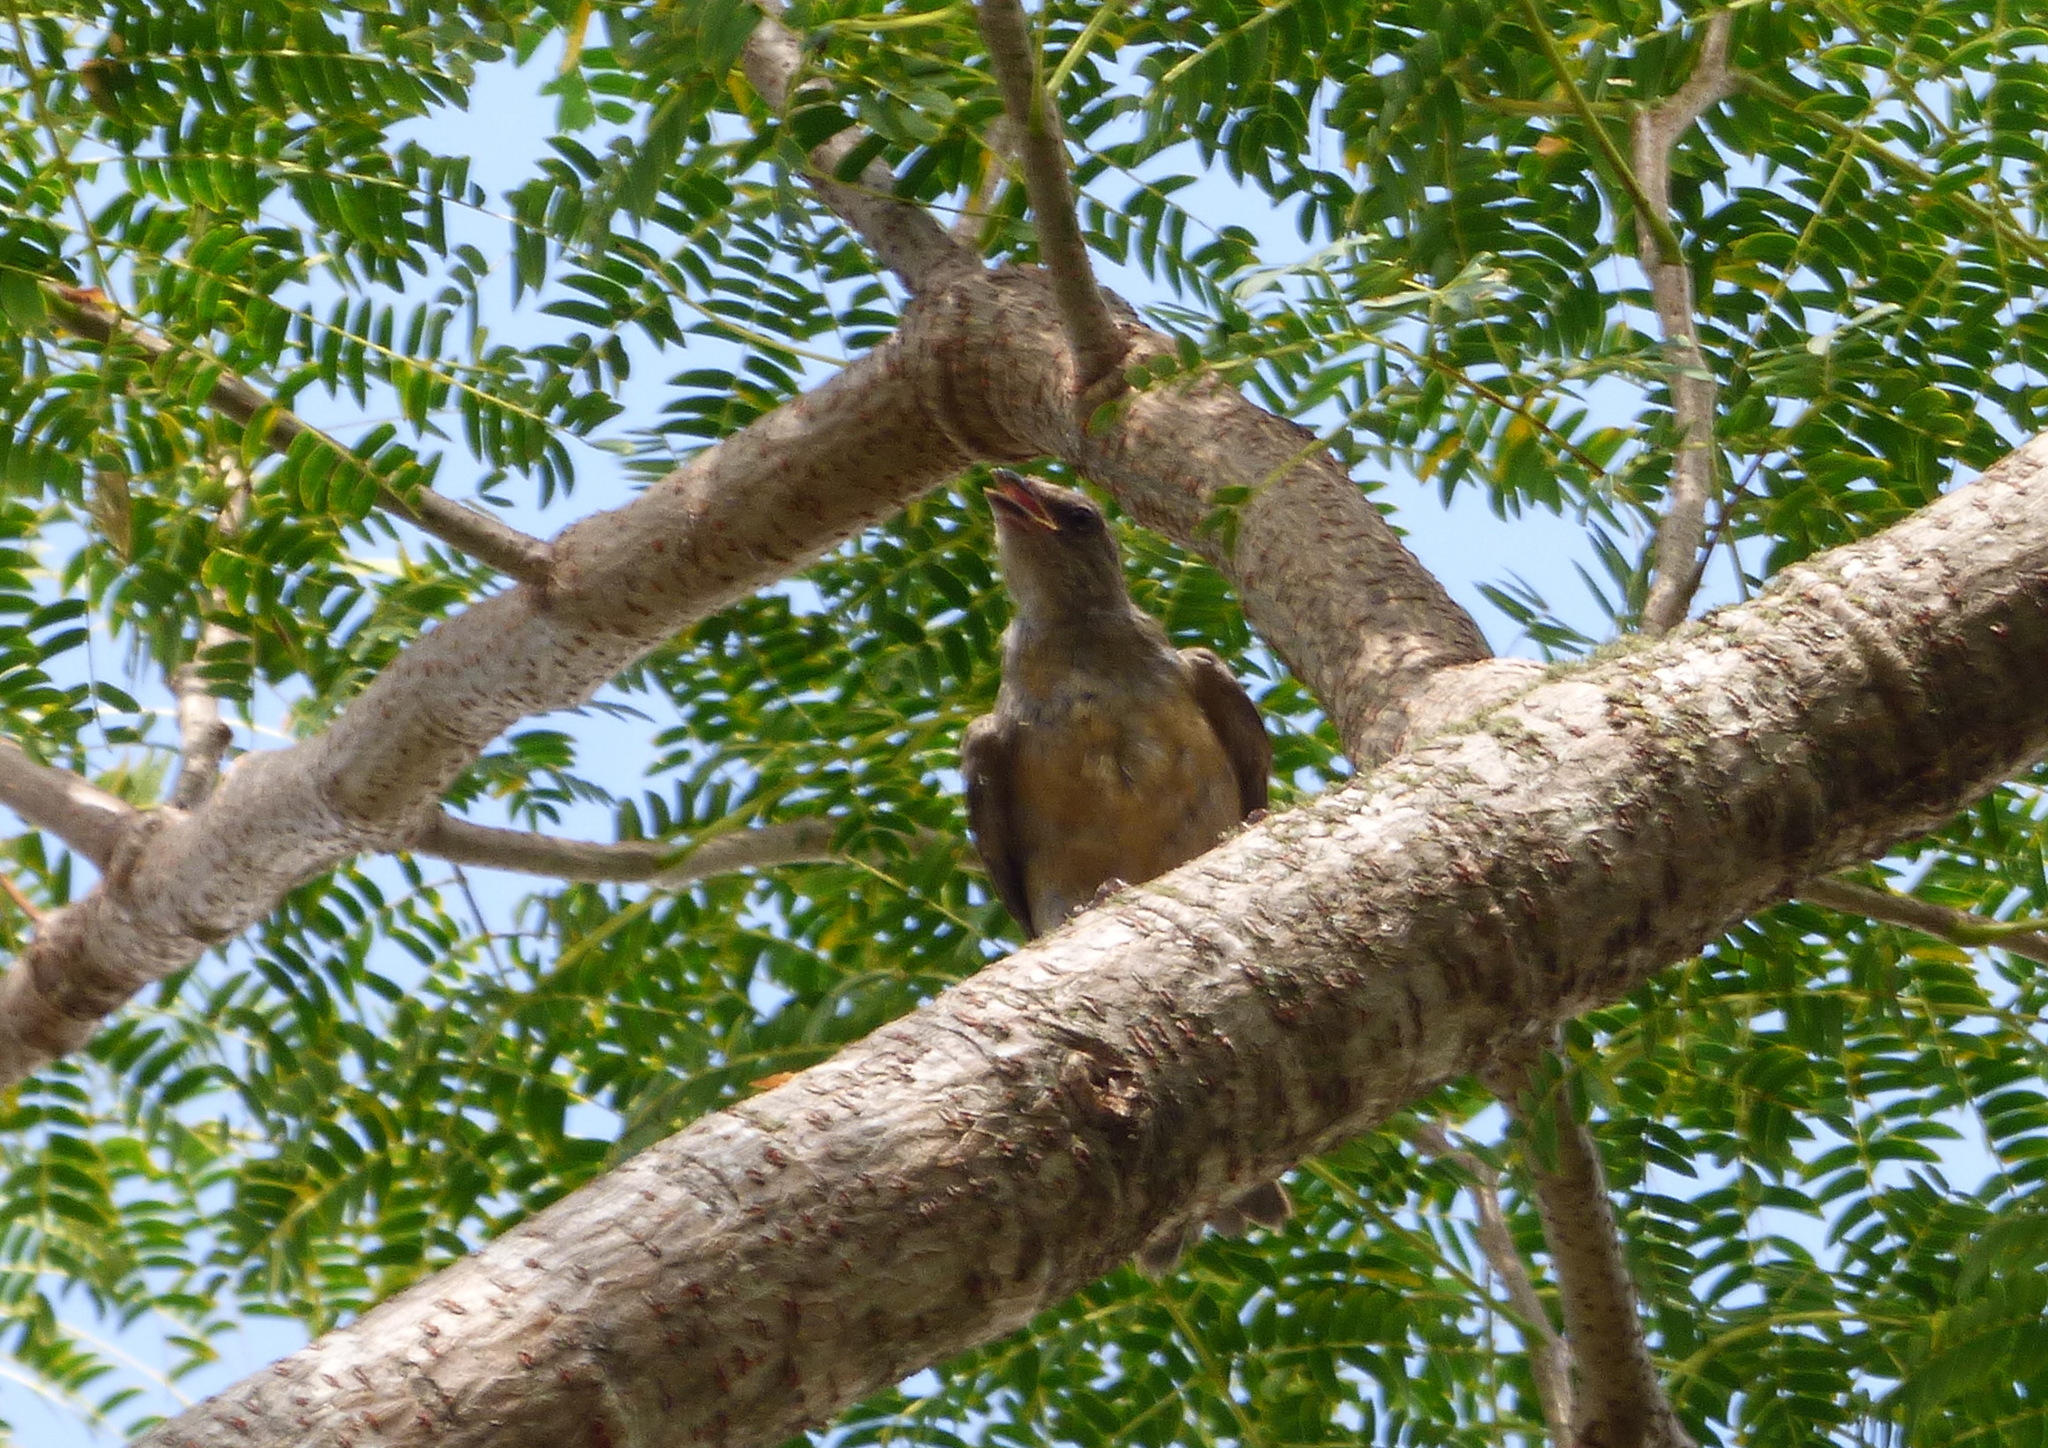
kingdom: Animalia
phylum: Chordata
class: Aves
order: Passeriformes
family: Thraupidae
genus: Rauenia
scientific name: Rauenia bonariensis
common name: Blue-and-yellow tanager
